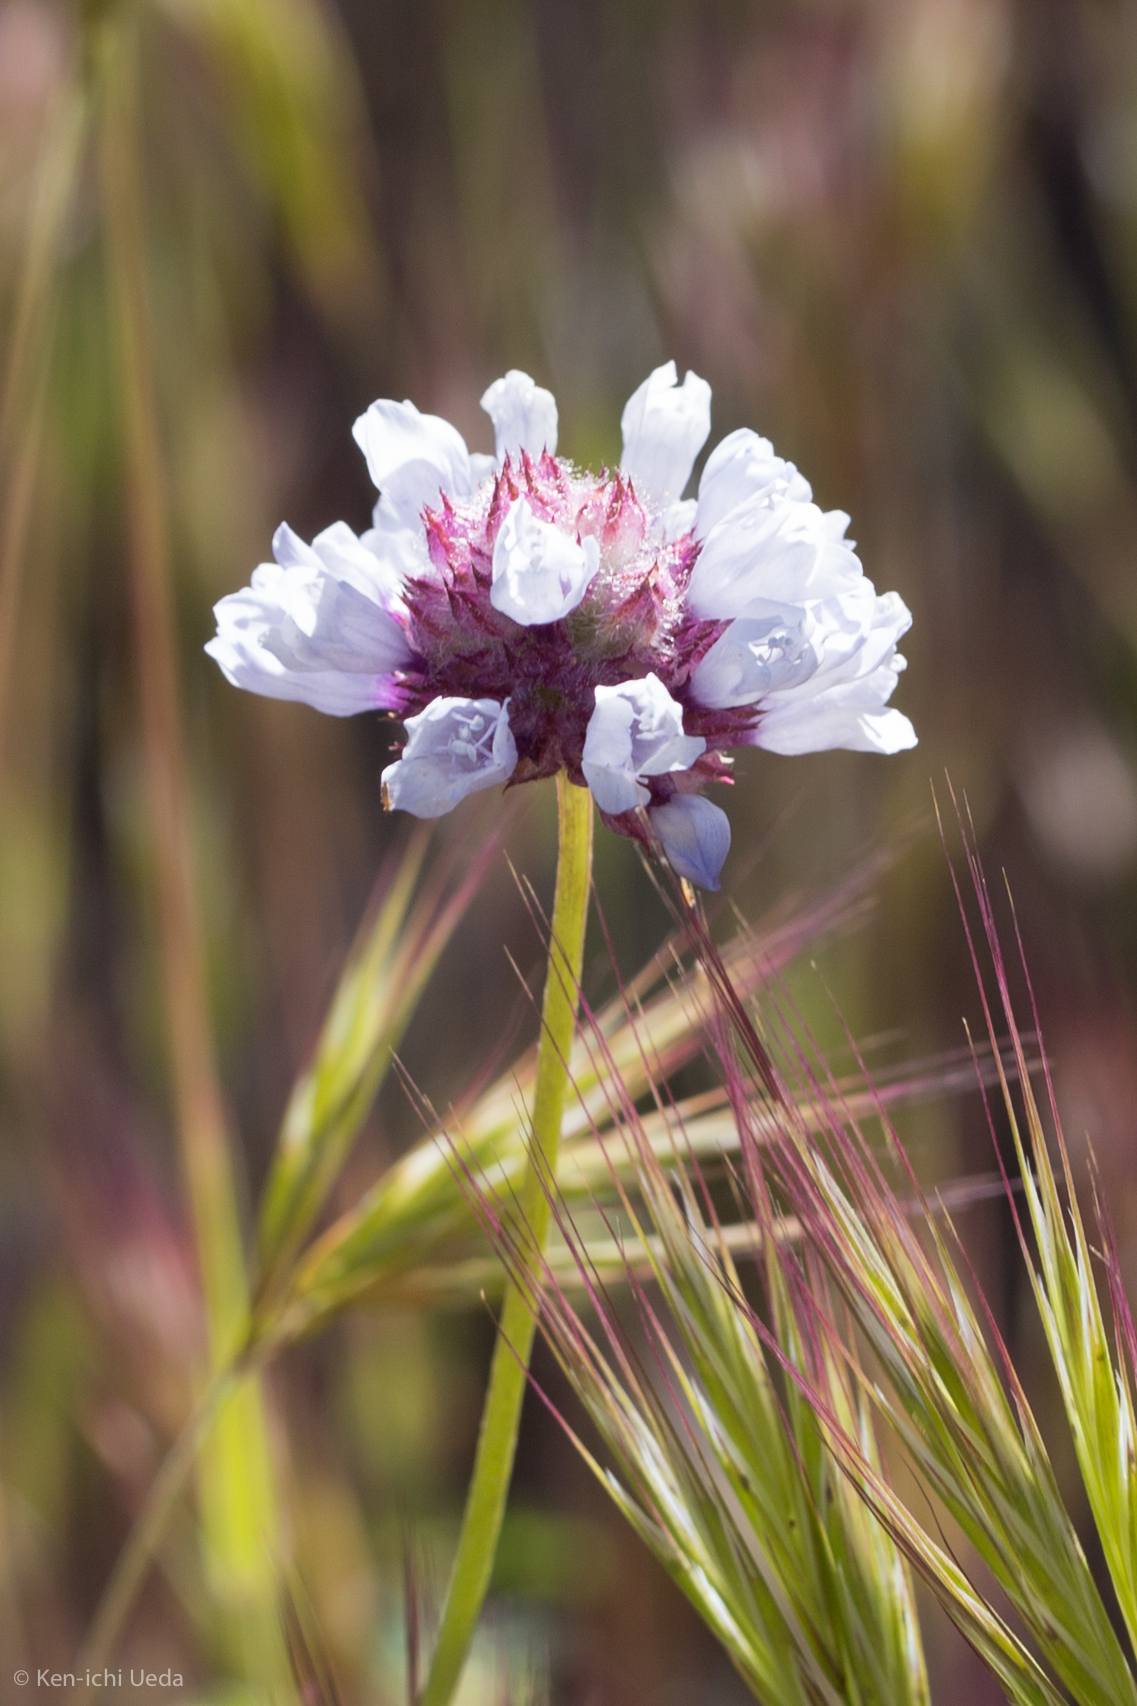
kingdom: Plantae
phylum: Tracheophyta
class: Magnoliopsida
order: Ericales
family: Polemoniaceae
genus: Gilia
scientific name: Gilia capitata
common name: Bluehead gilia
